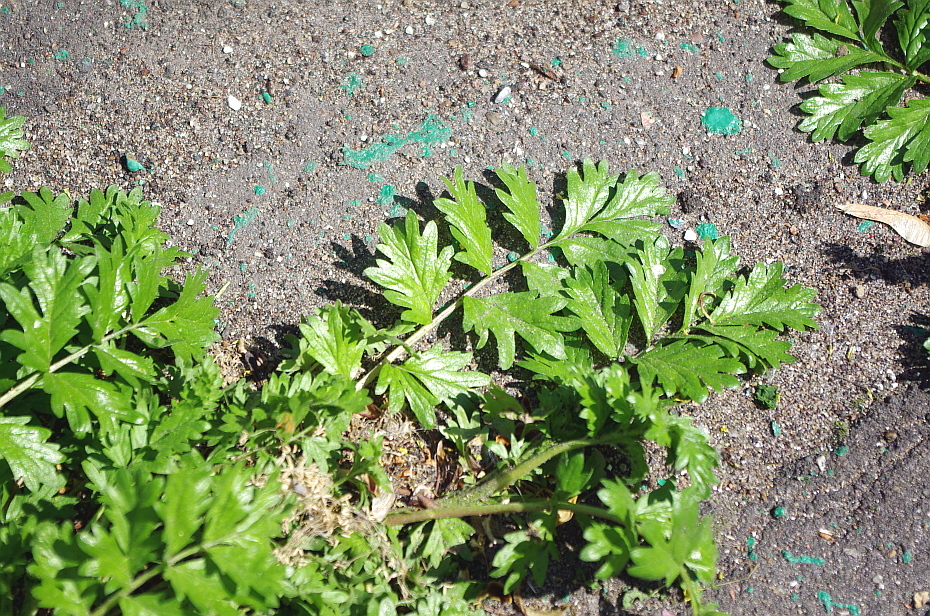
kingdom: Plantae
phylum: Tracheophyta
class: Magnoliopsida
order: Rosales
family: Rosaceae
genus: Potentilla
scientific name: Potentilla supina
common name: Prostrate cinquefoil
